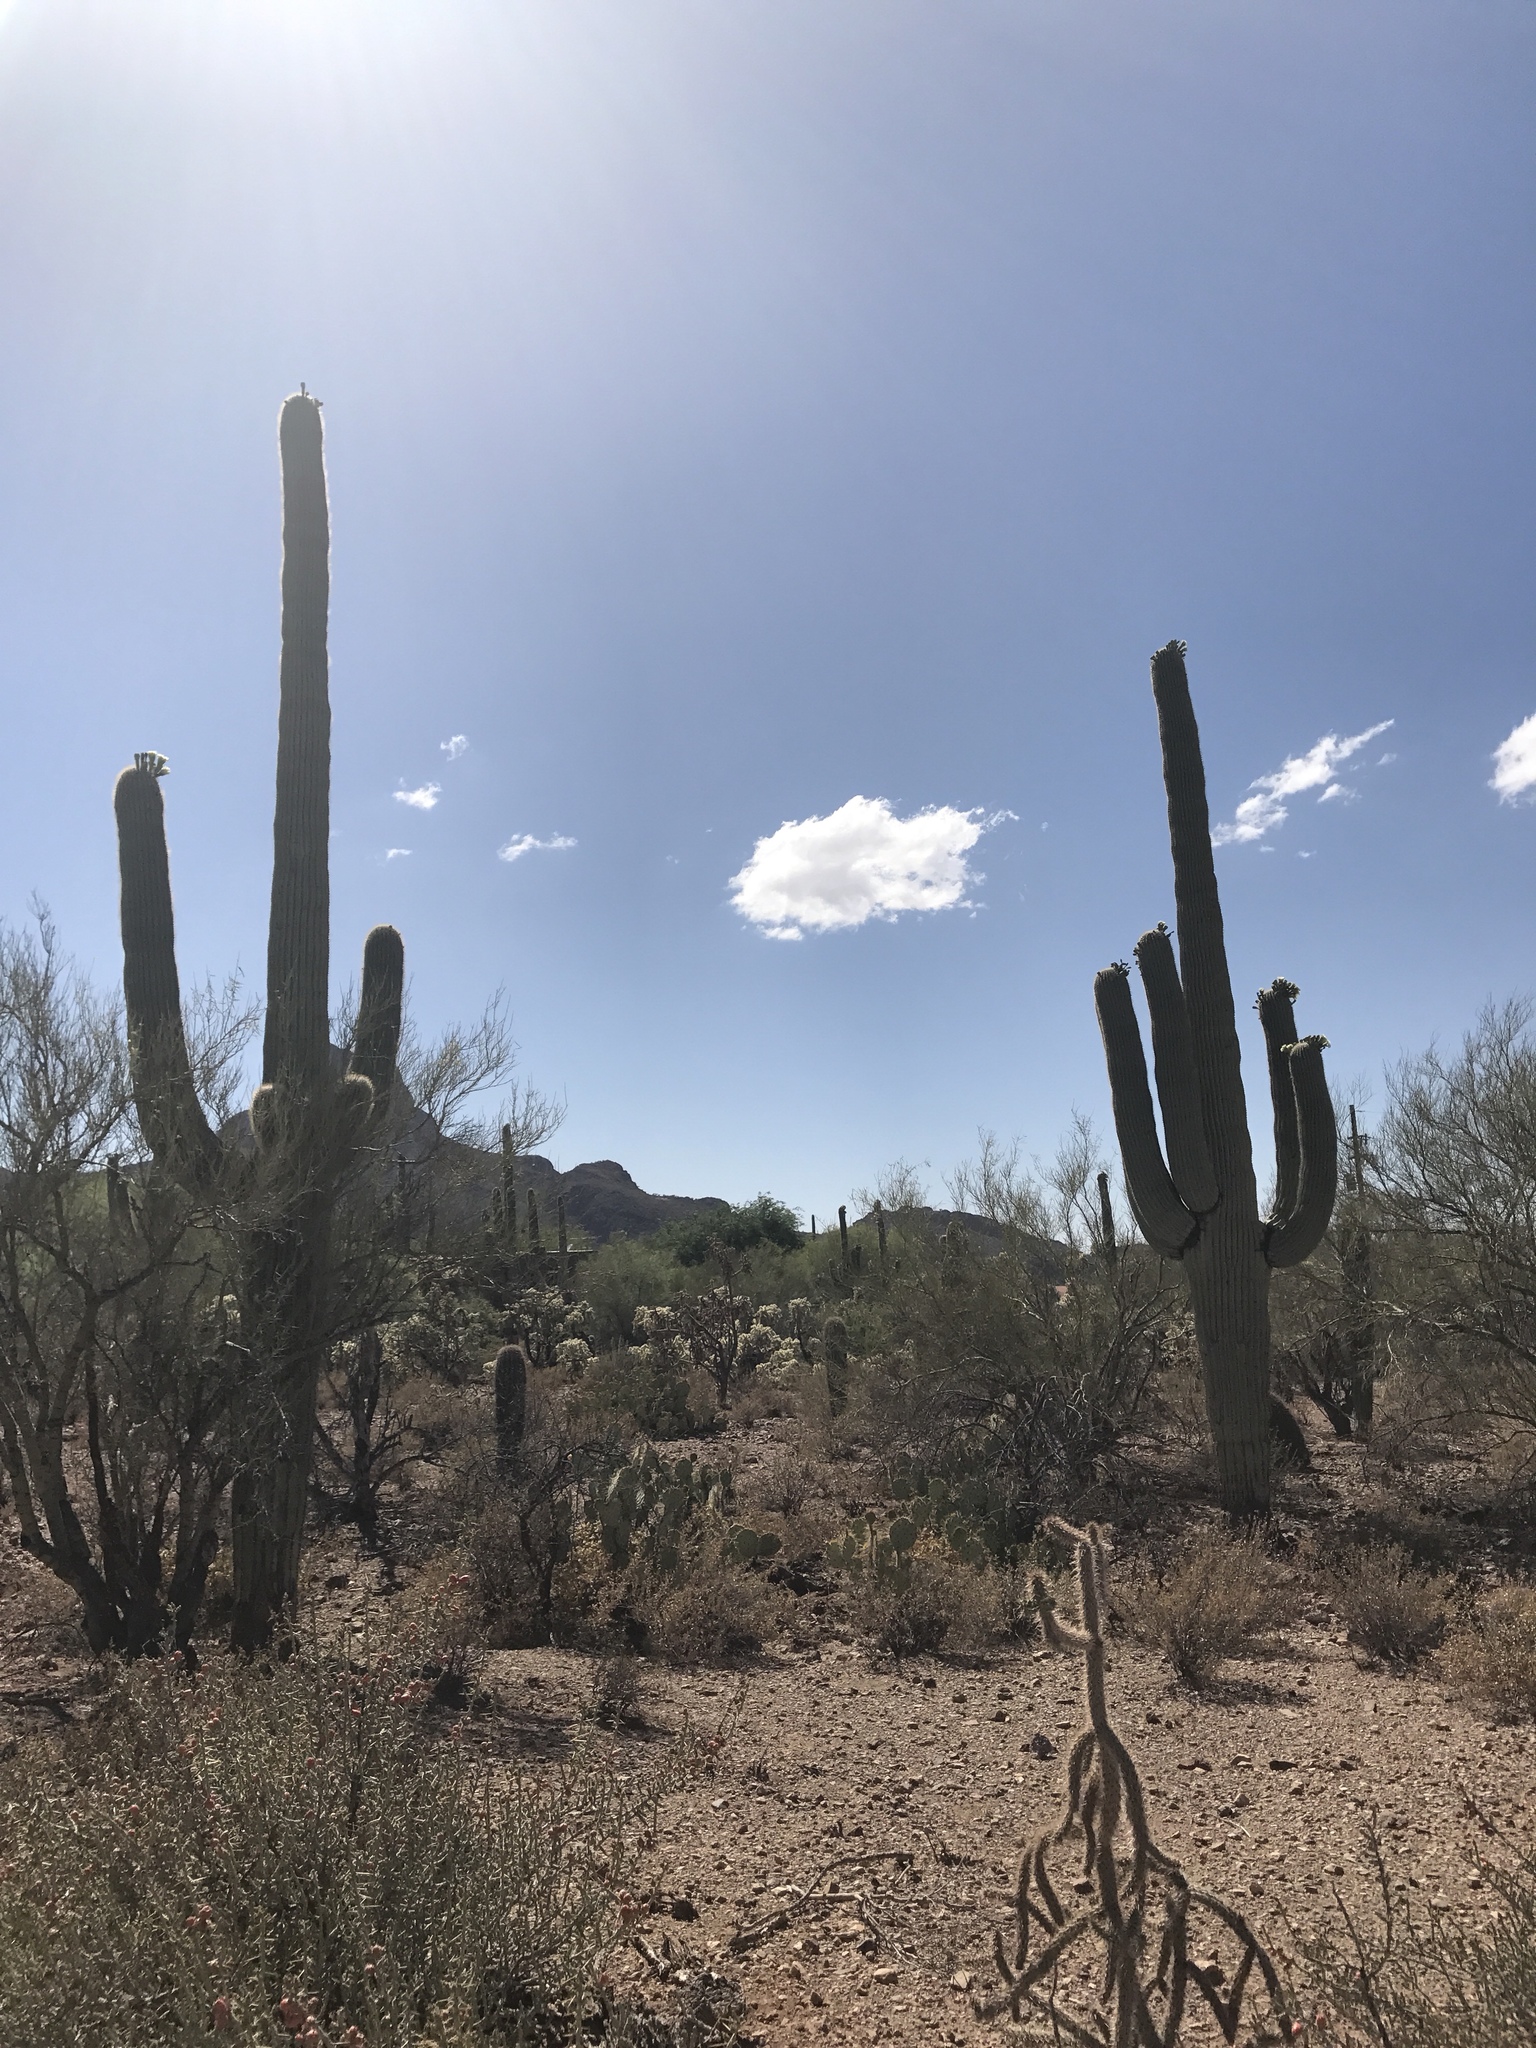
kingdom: Plantae
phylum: Tracheophyta
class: Magnoliopsida
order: Caryophyllales
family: Cactaceae
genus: Carnegiea
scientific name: Carnegiea gigantea
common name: Saguaro
